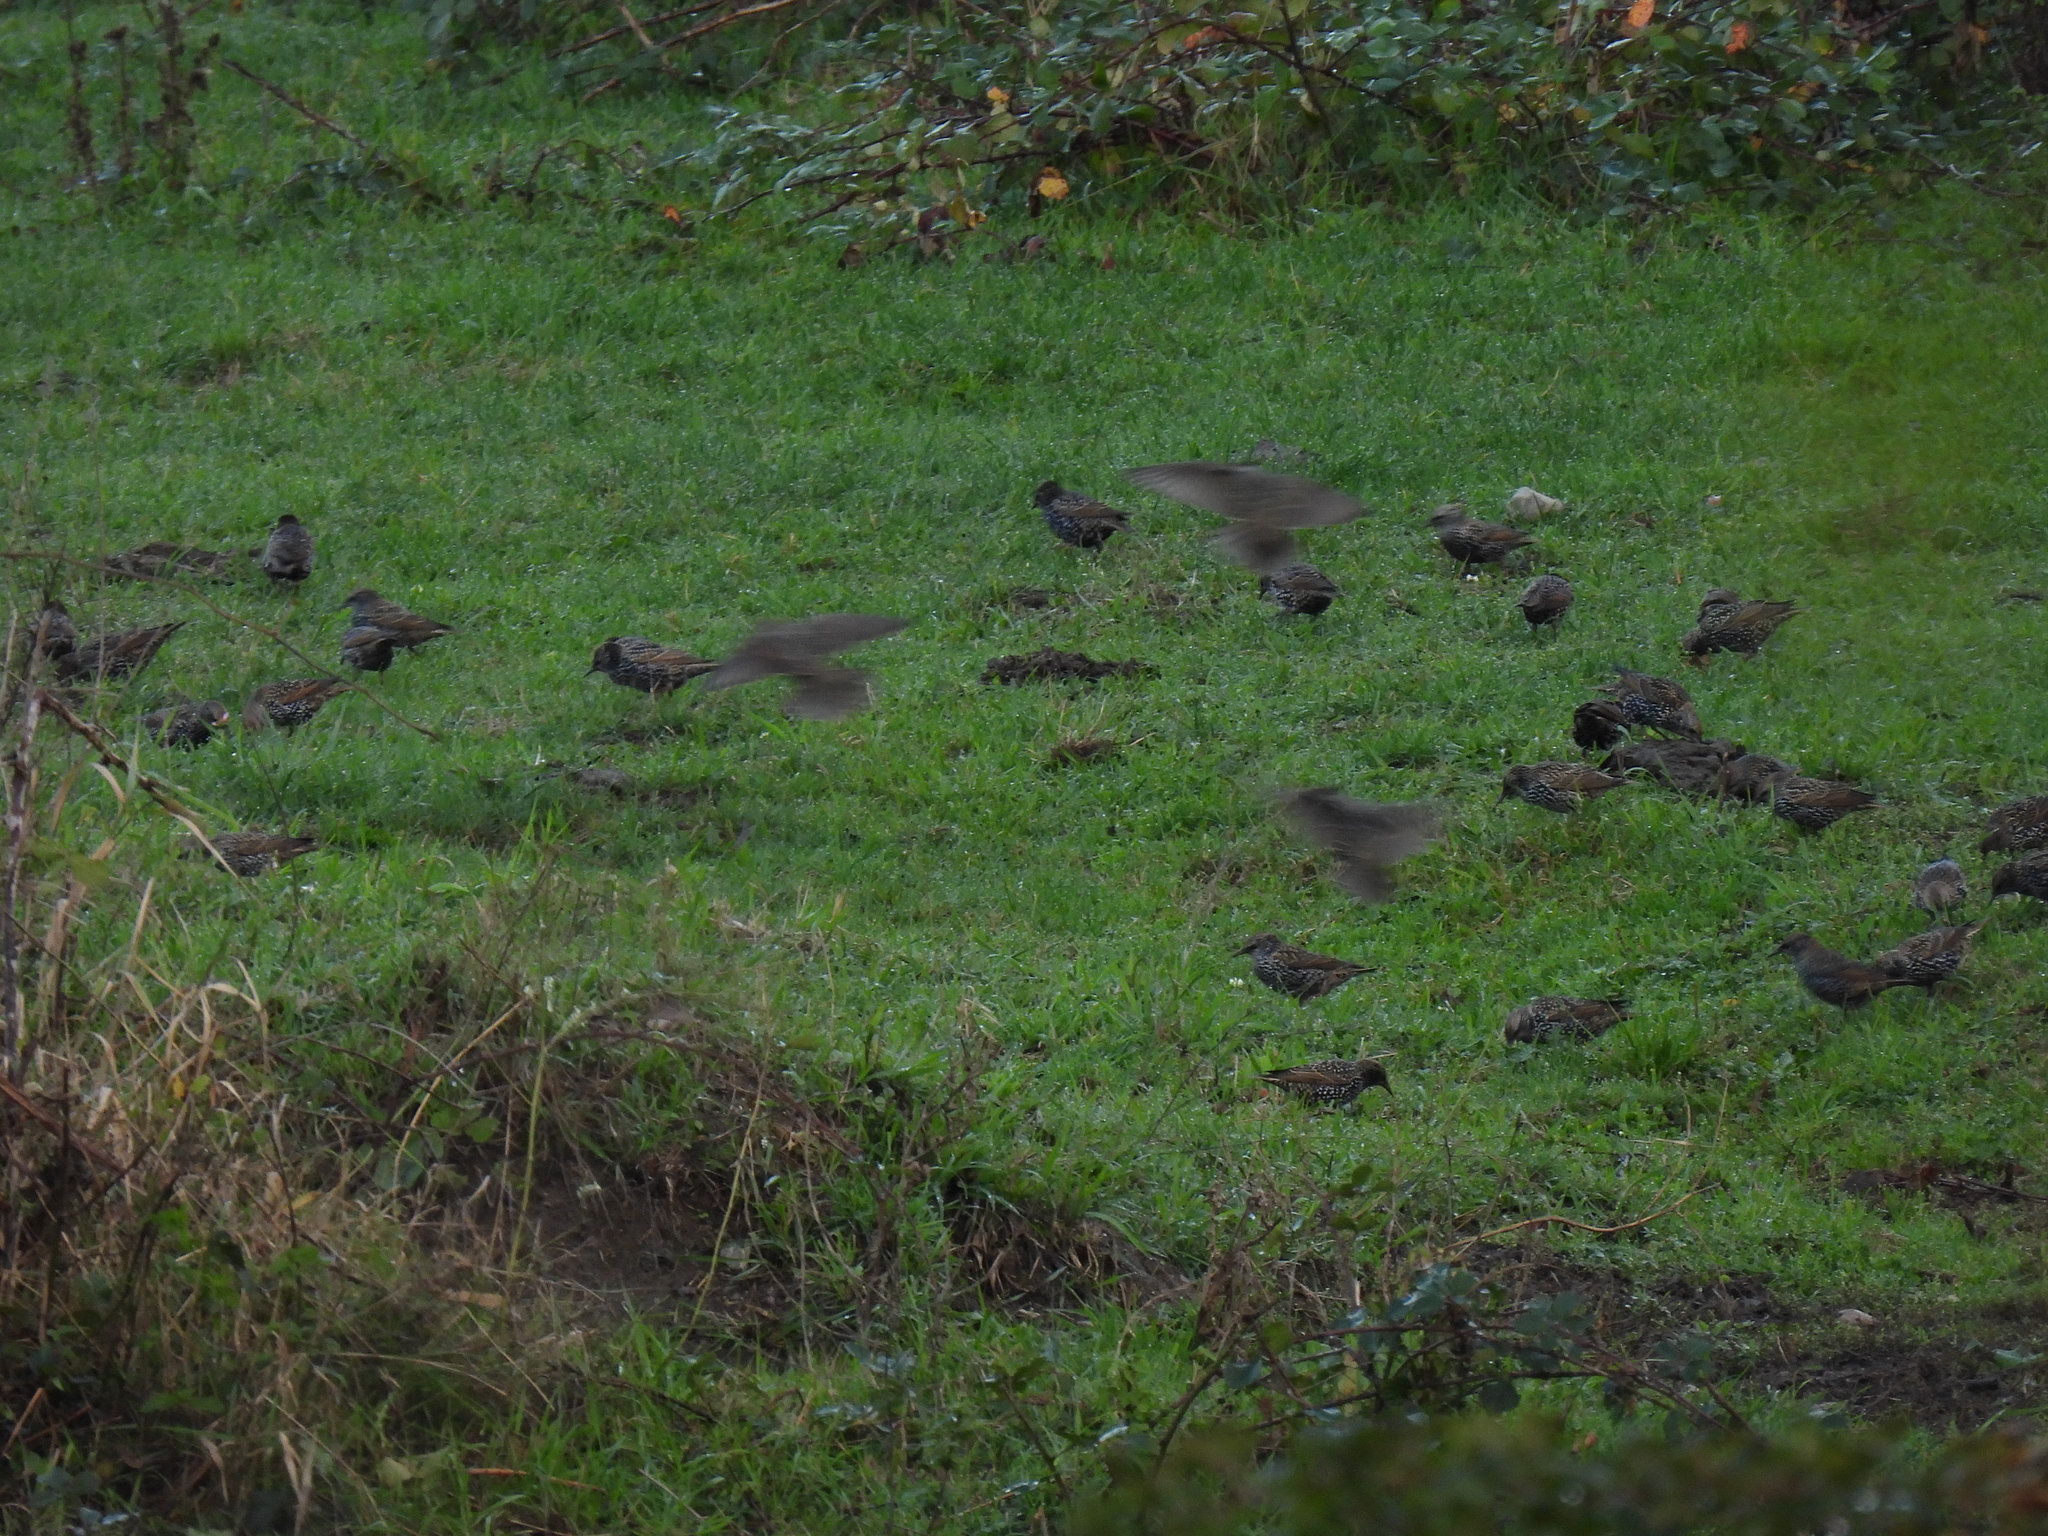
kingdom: Animalia
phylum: Chordata
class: Aves
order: Passeriformes
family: Sturnidae
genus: Sturnus
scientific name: Sturnus vulgaris
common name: Common starling
